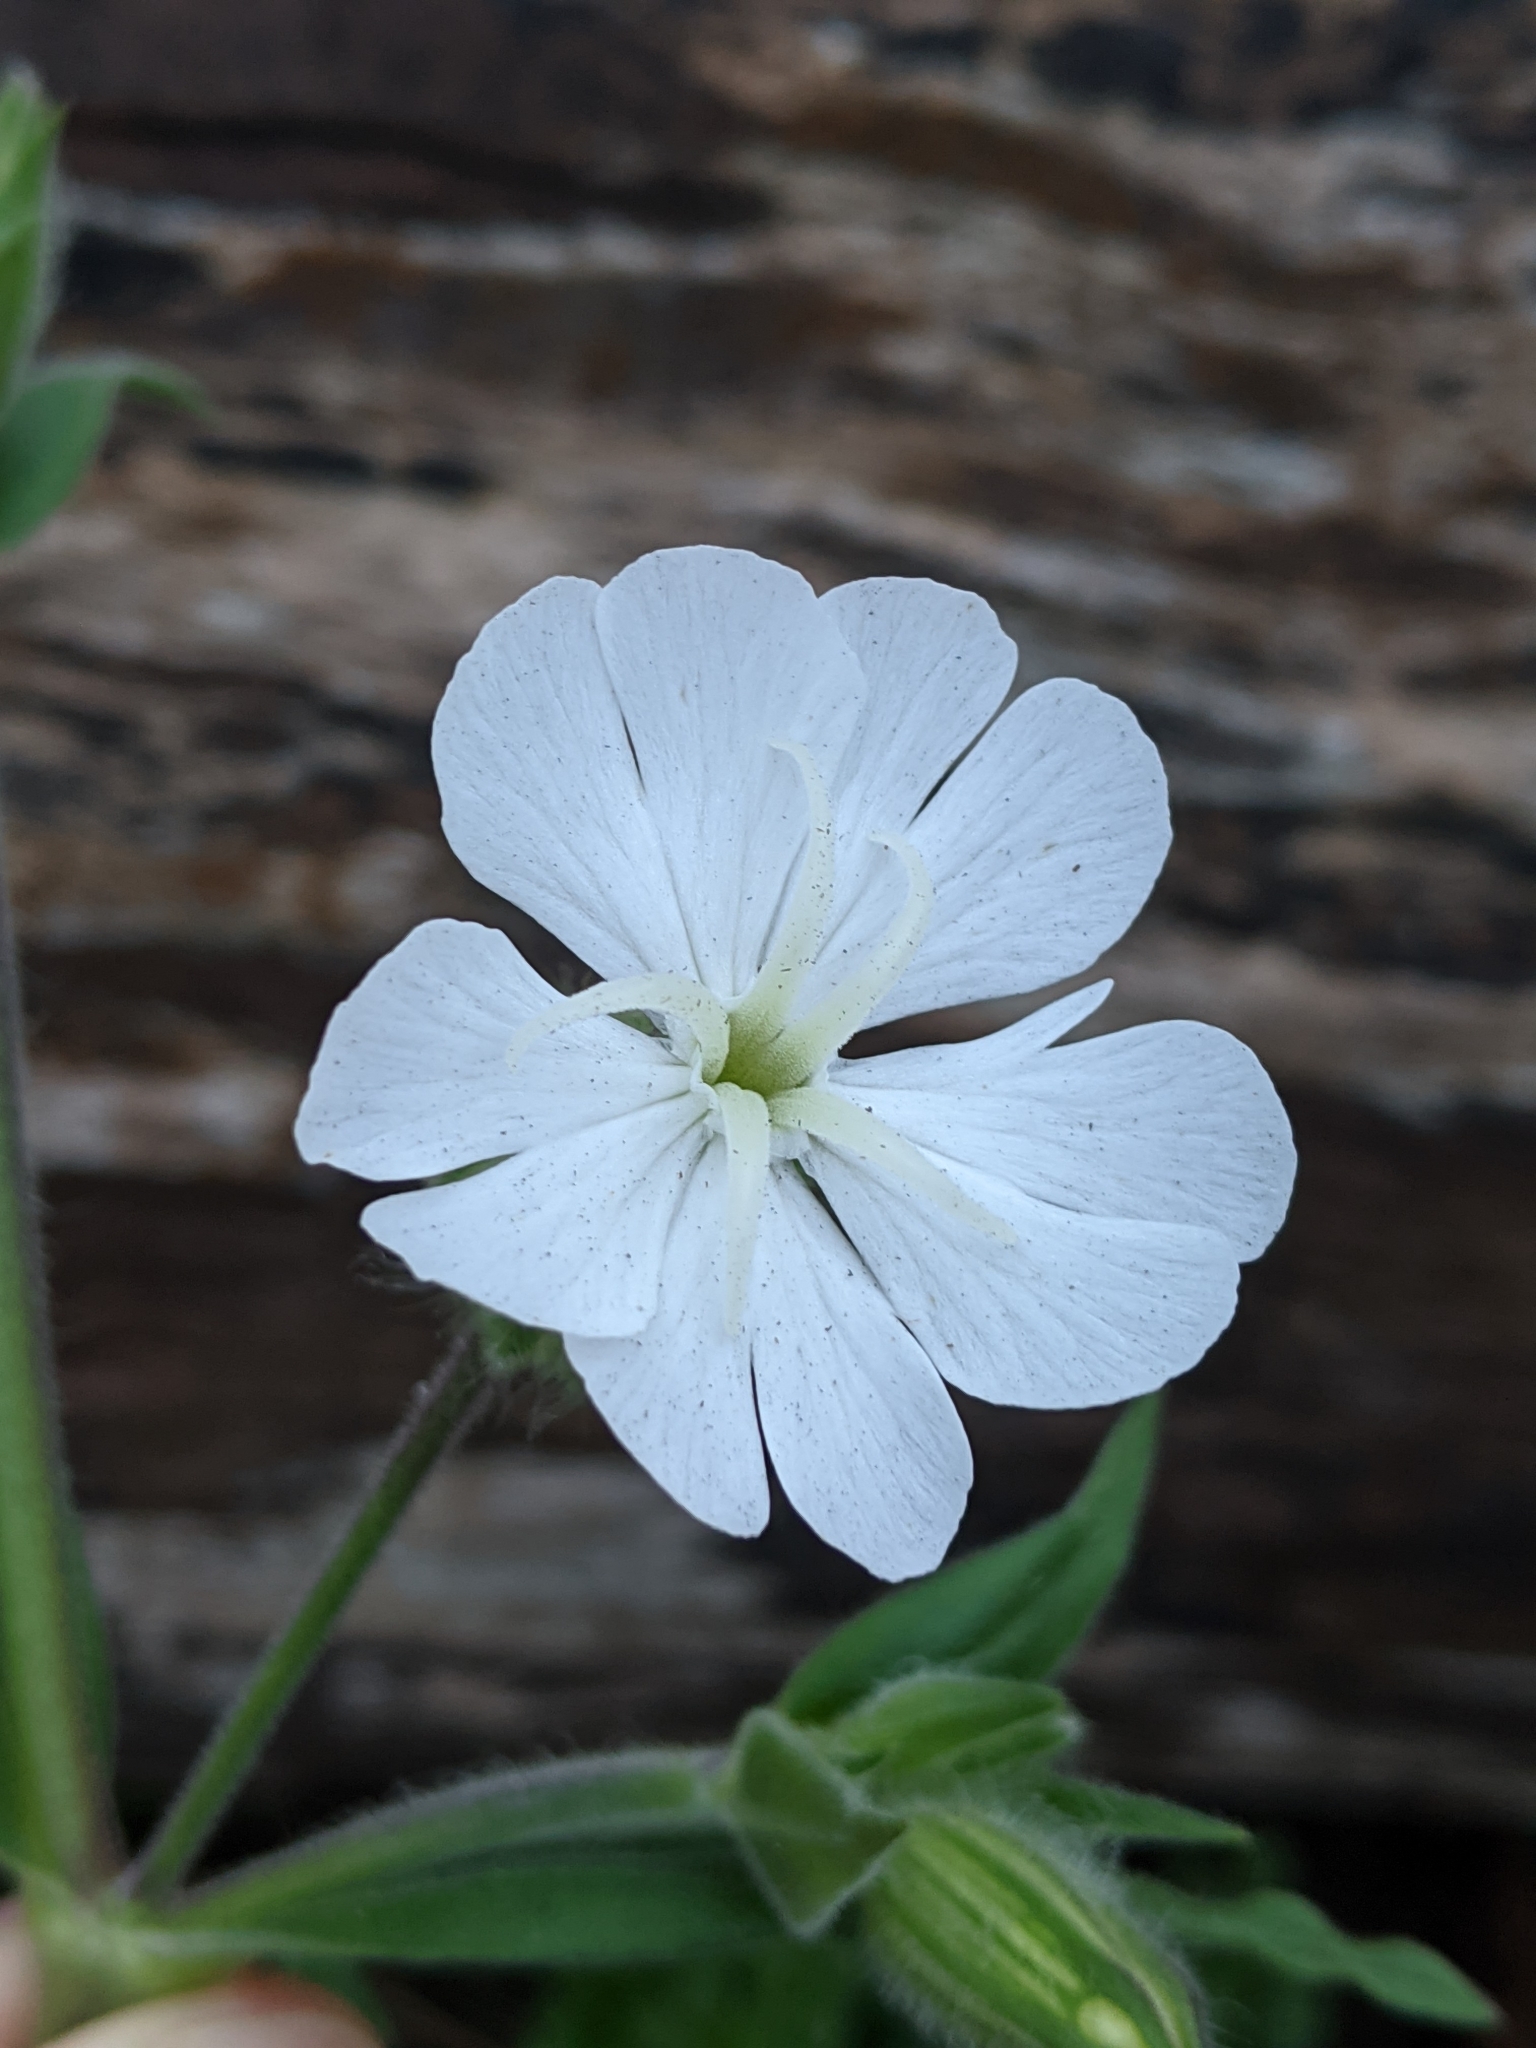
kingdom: Plantae
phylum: Tracheophyta
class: Magnoliopsida
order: Caryophyllales
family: Caryophyllaceae
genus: Silene
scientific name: Silene latifolia
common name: White campion
